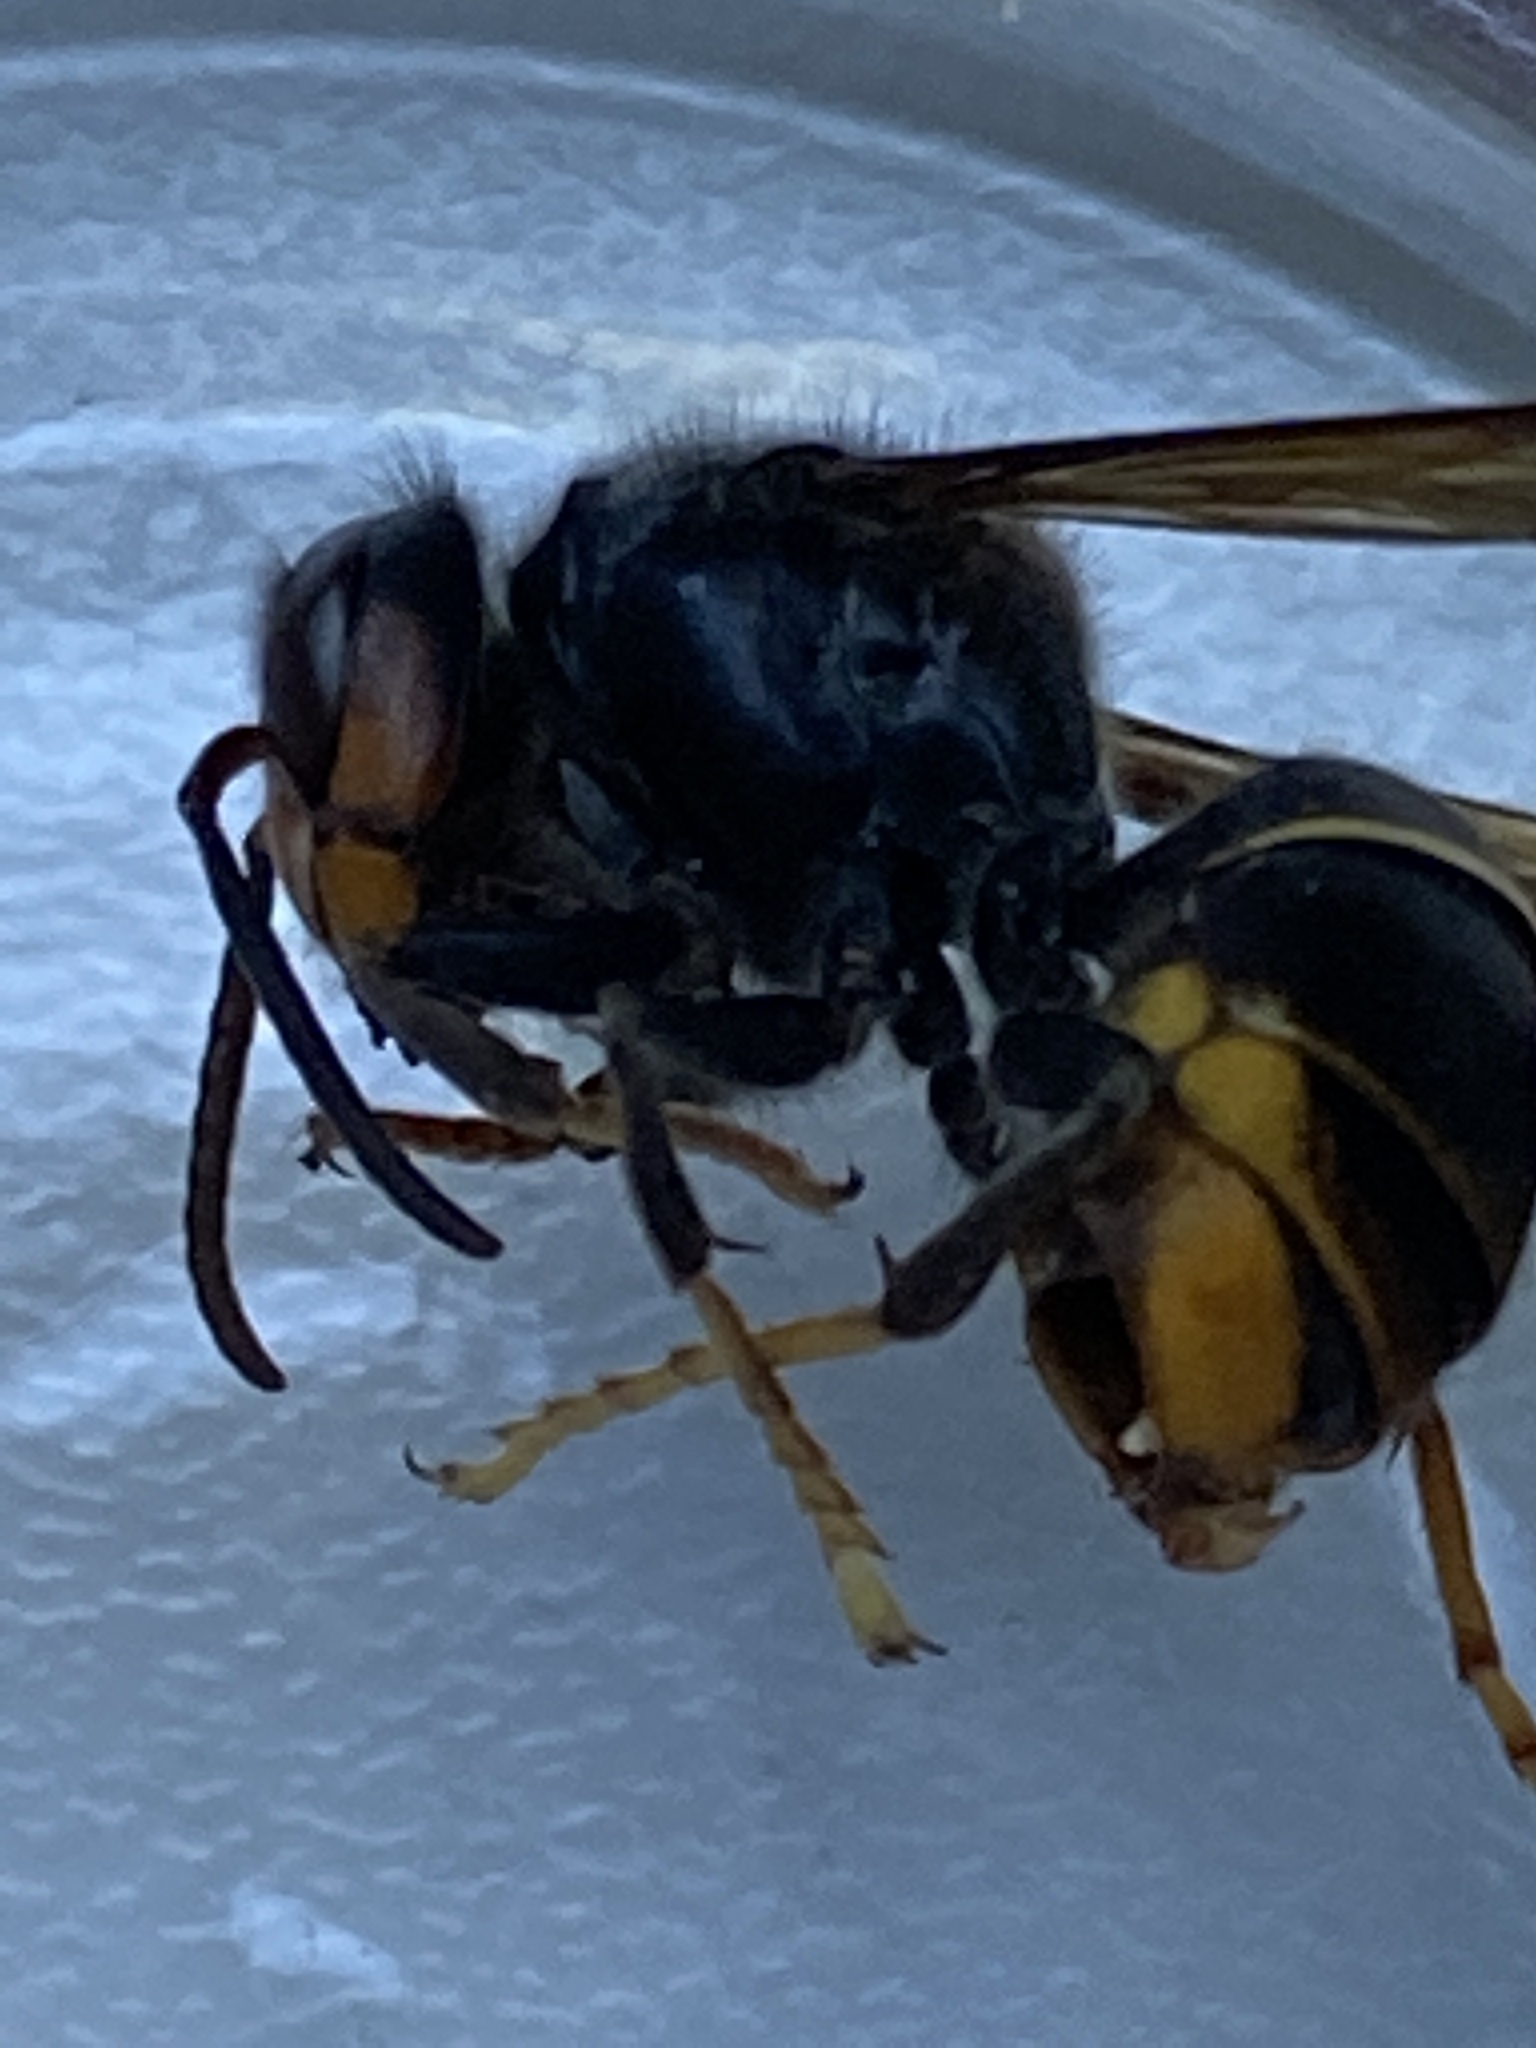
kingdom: Animalia
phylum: Arthropoda
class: Insecta
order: Hymenoptera
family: Vespidae
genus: Vespa
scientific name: Vespa velutina
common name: Asian hornet
